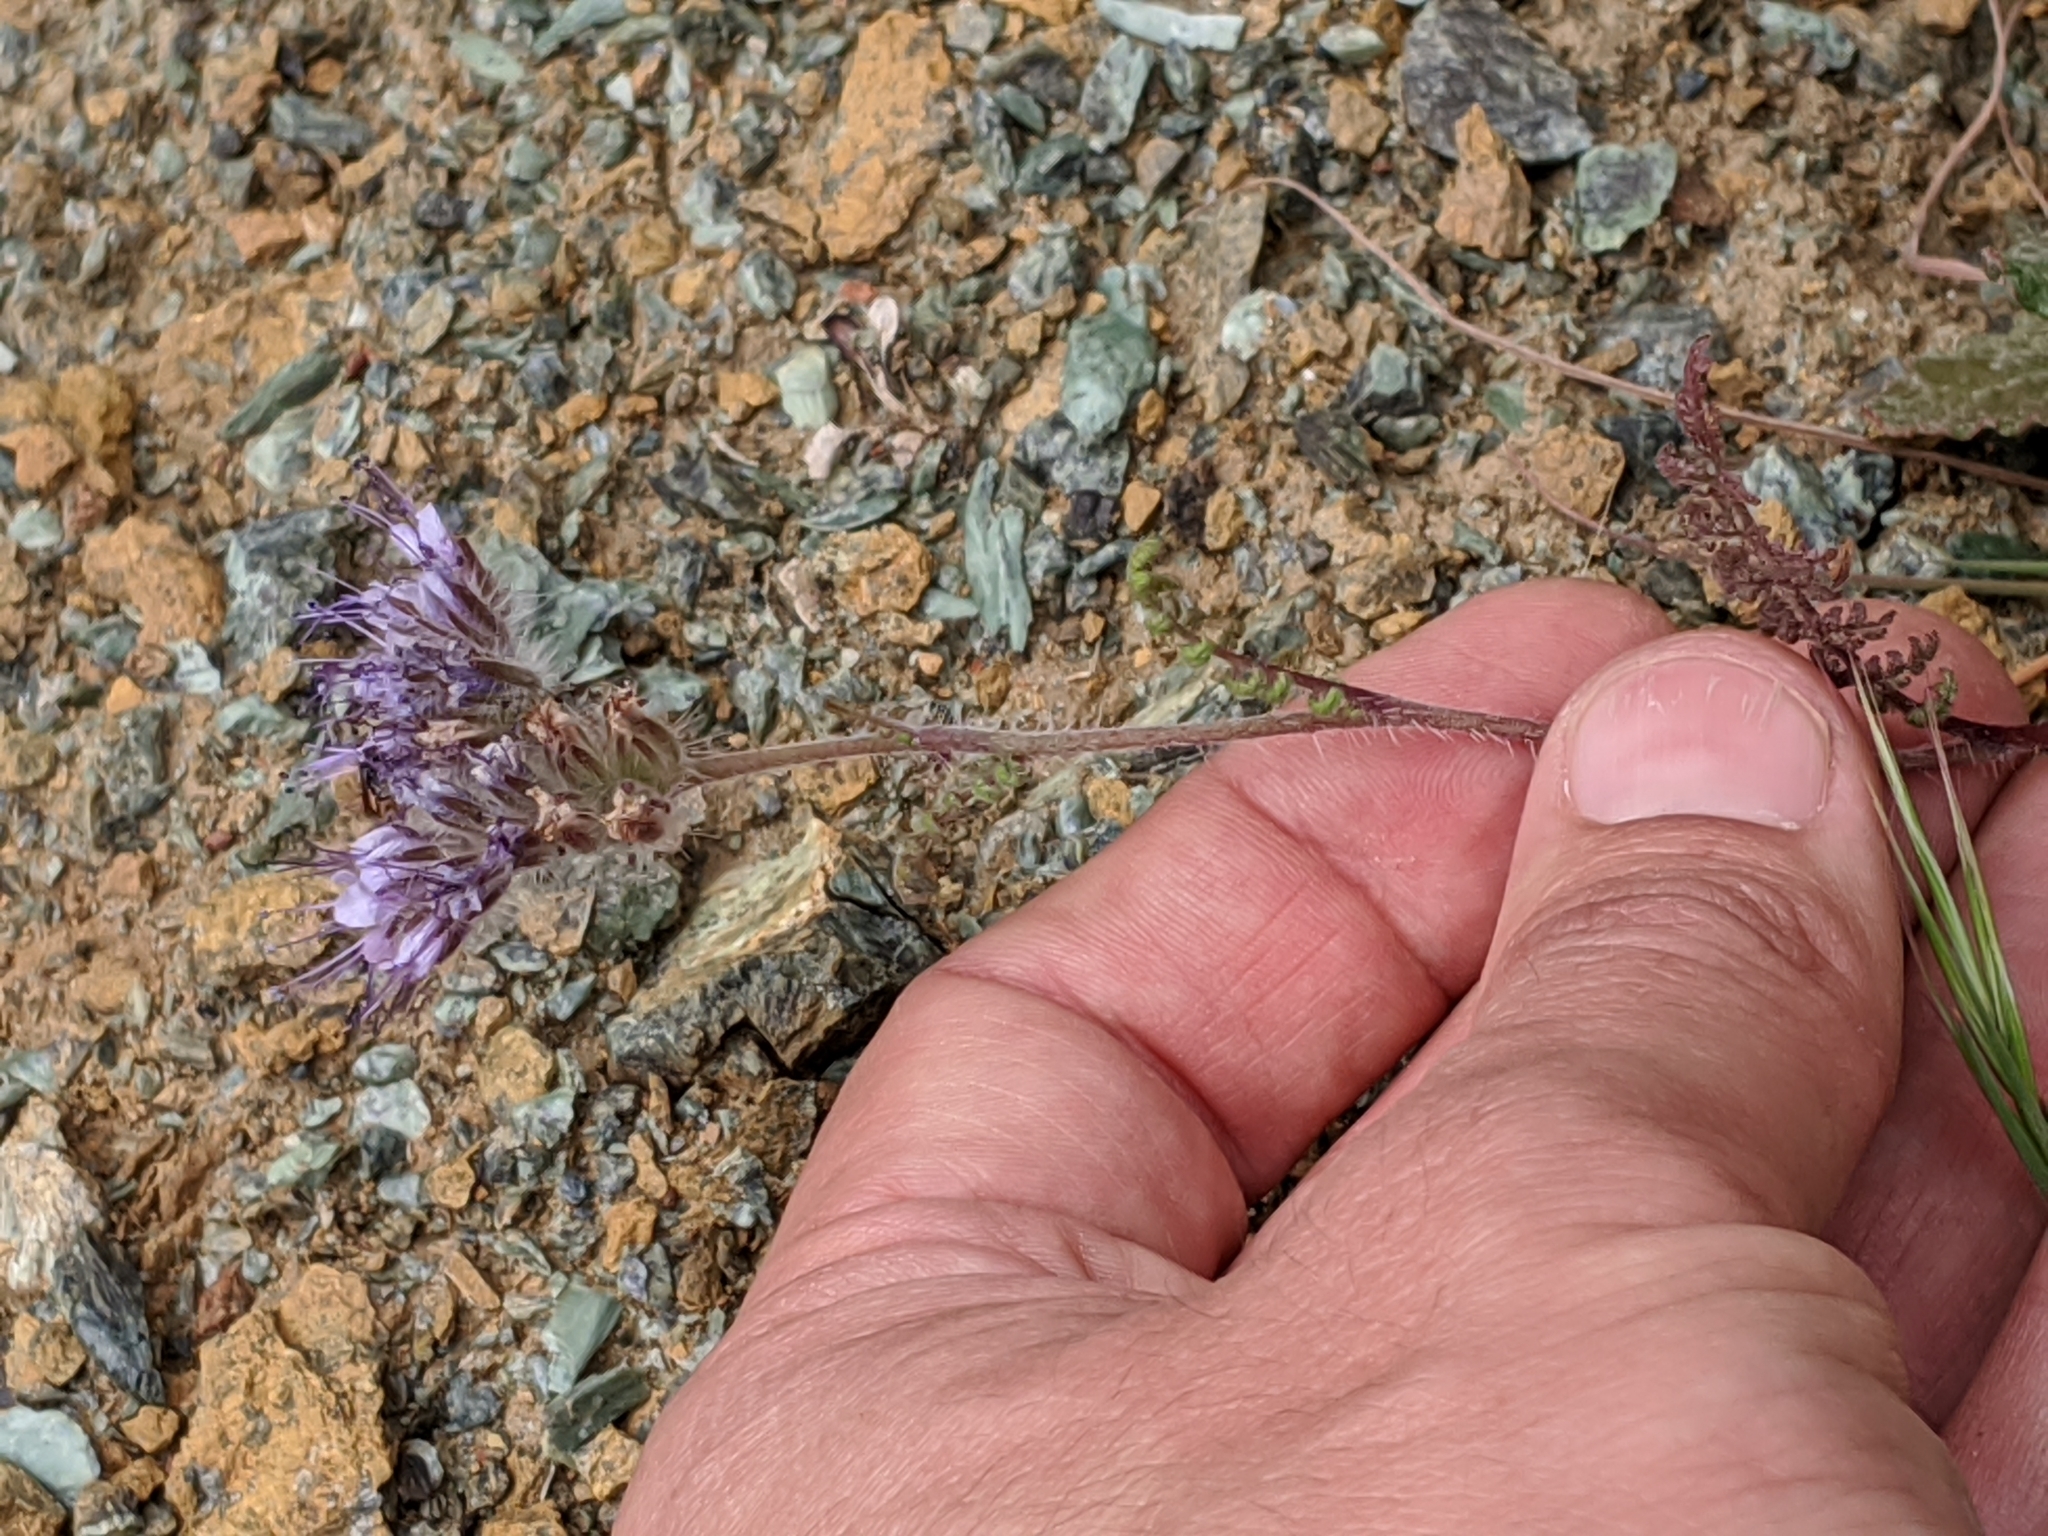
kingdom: Plantae
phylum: Tracheophyta
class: Magnoliopsida
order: Boraginales
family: Hydrophyllaceae
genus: Phacelia
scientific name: Phacelia tanacetifolia
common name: Phacelia
